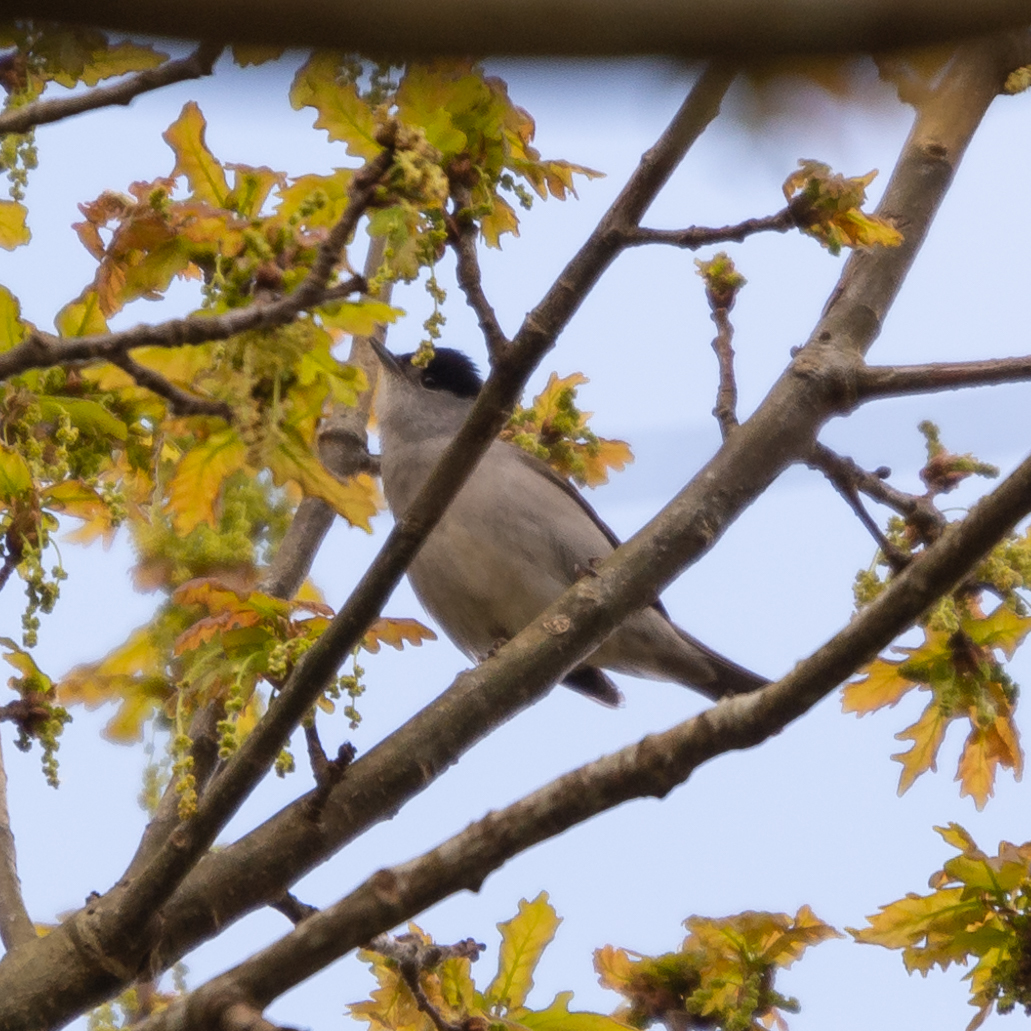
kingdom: Animalia
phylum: Chordata
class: Aves
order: Passeriformes
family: Sylviidae
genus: Sylvia
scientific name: Sylvia atricapilla
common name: Eurasian blackcap
